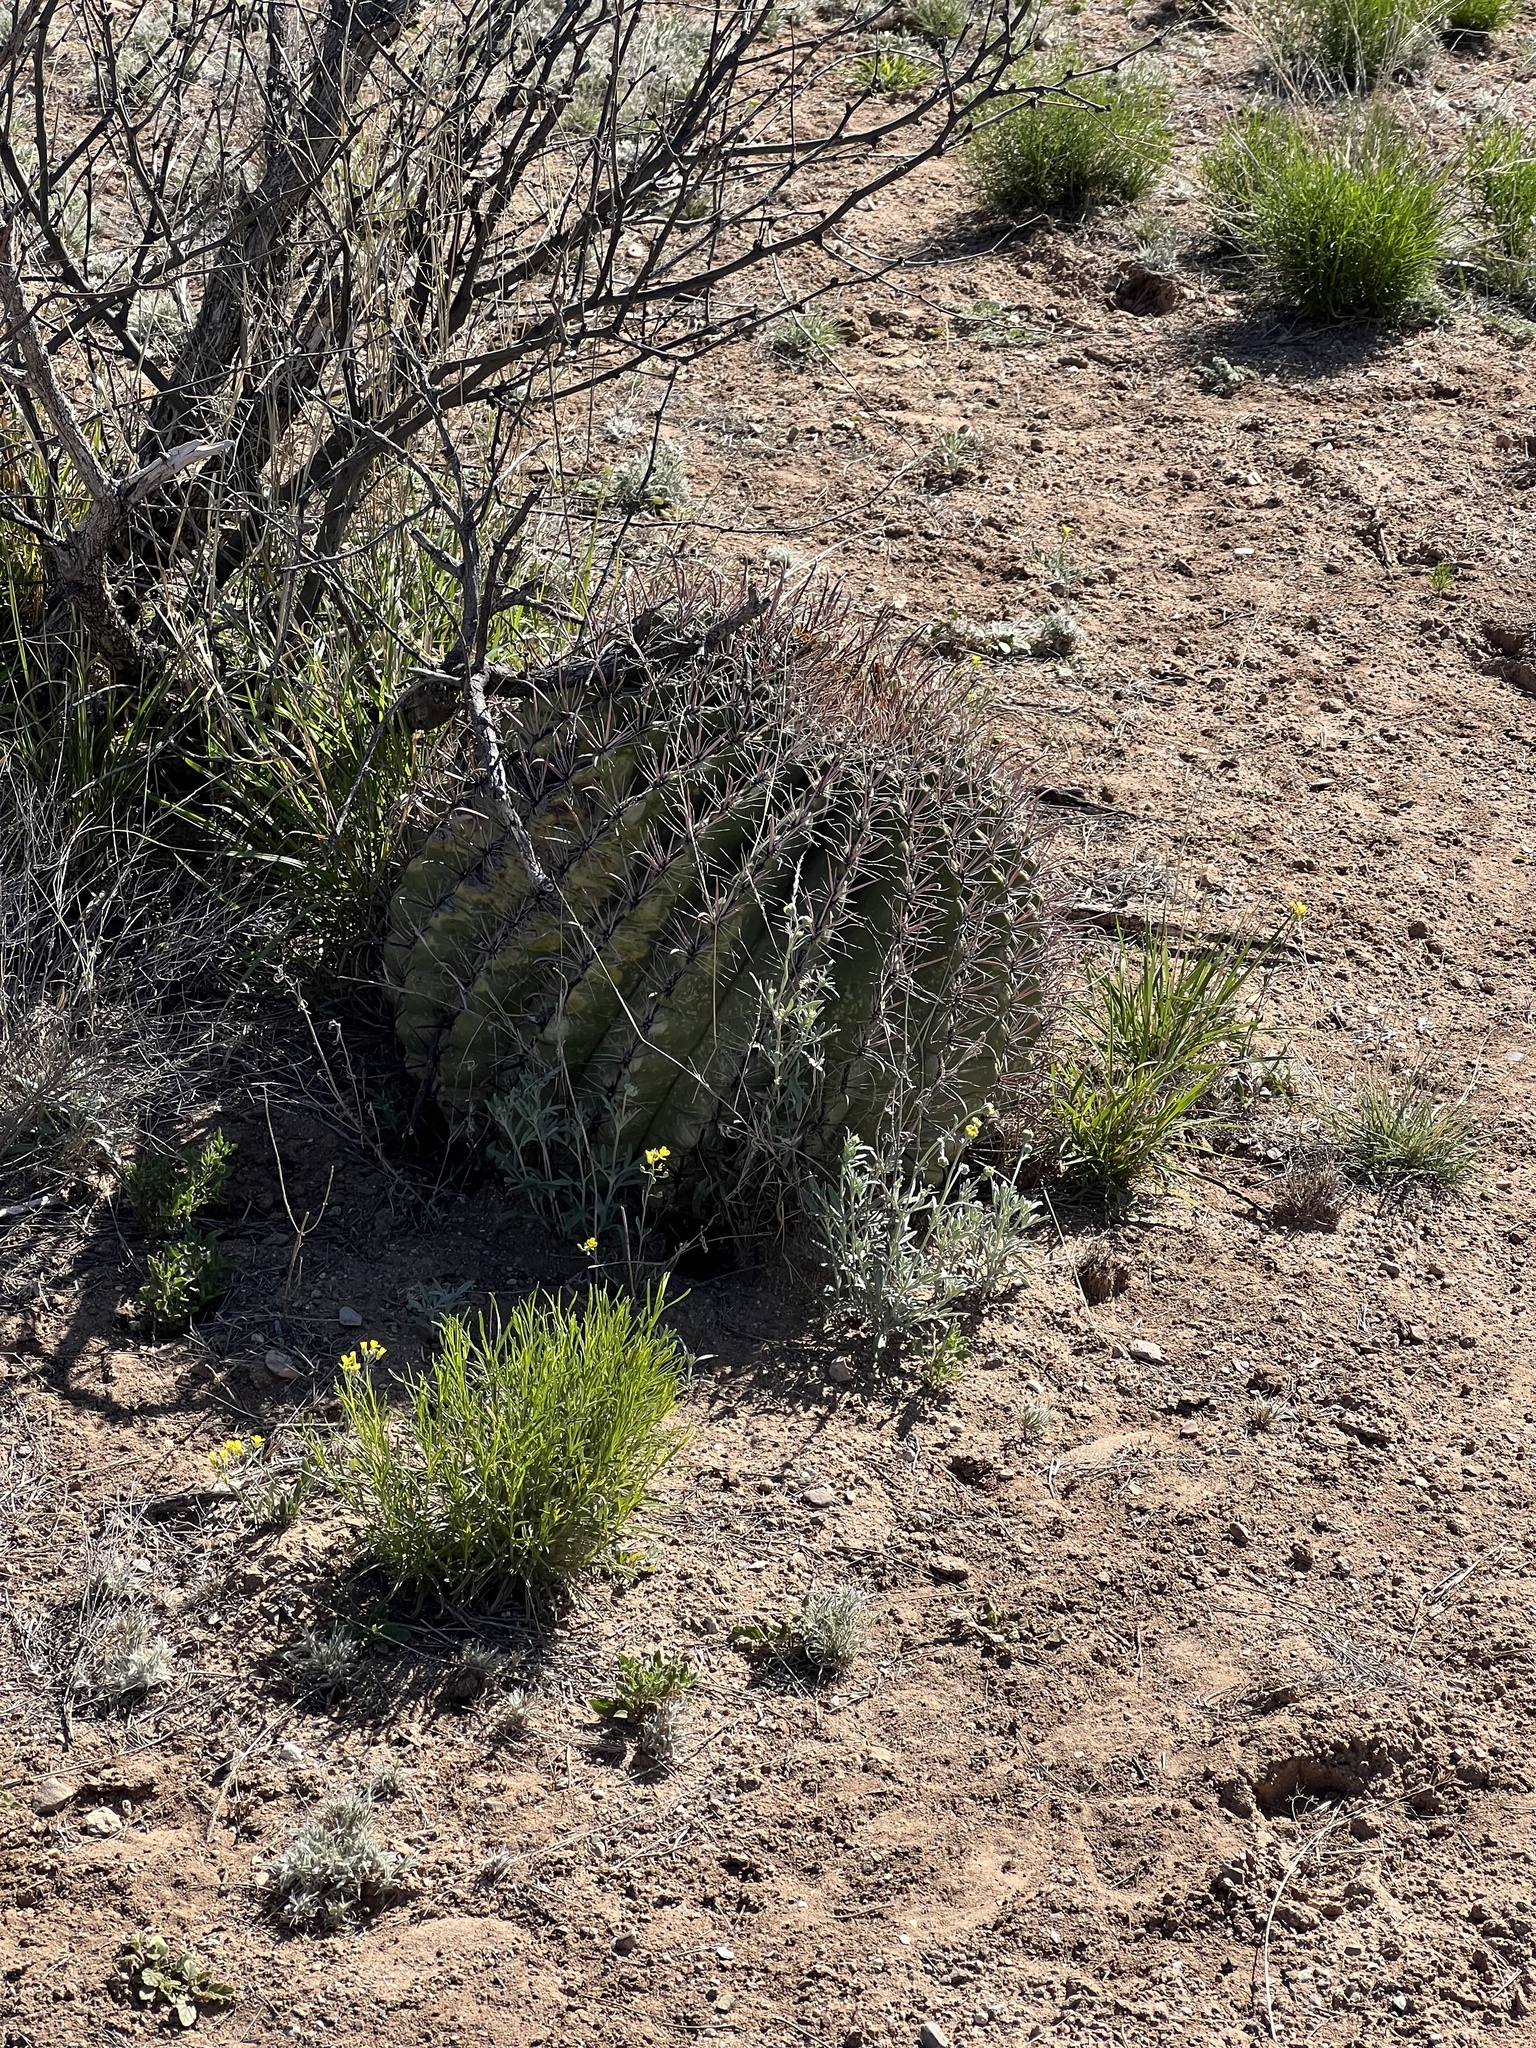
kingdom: Plantae
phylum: Tracheophyta
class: Magnoliopsida
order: Caryophyllales
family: Cactaceae
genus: Ferocactus
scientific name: Ferocactus wislizeni
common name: Candy barrel cactus
